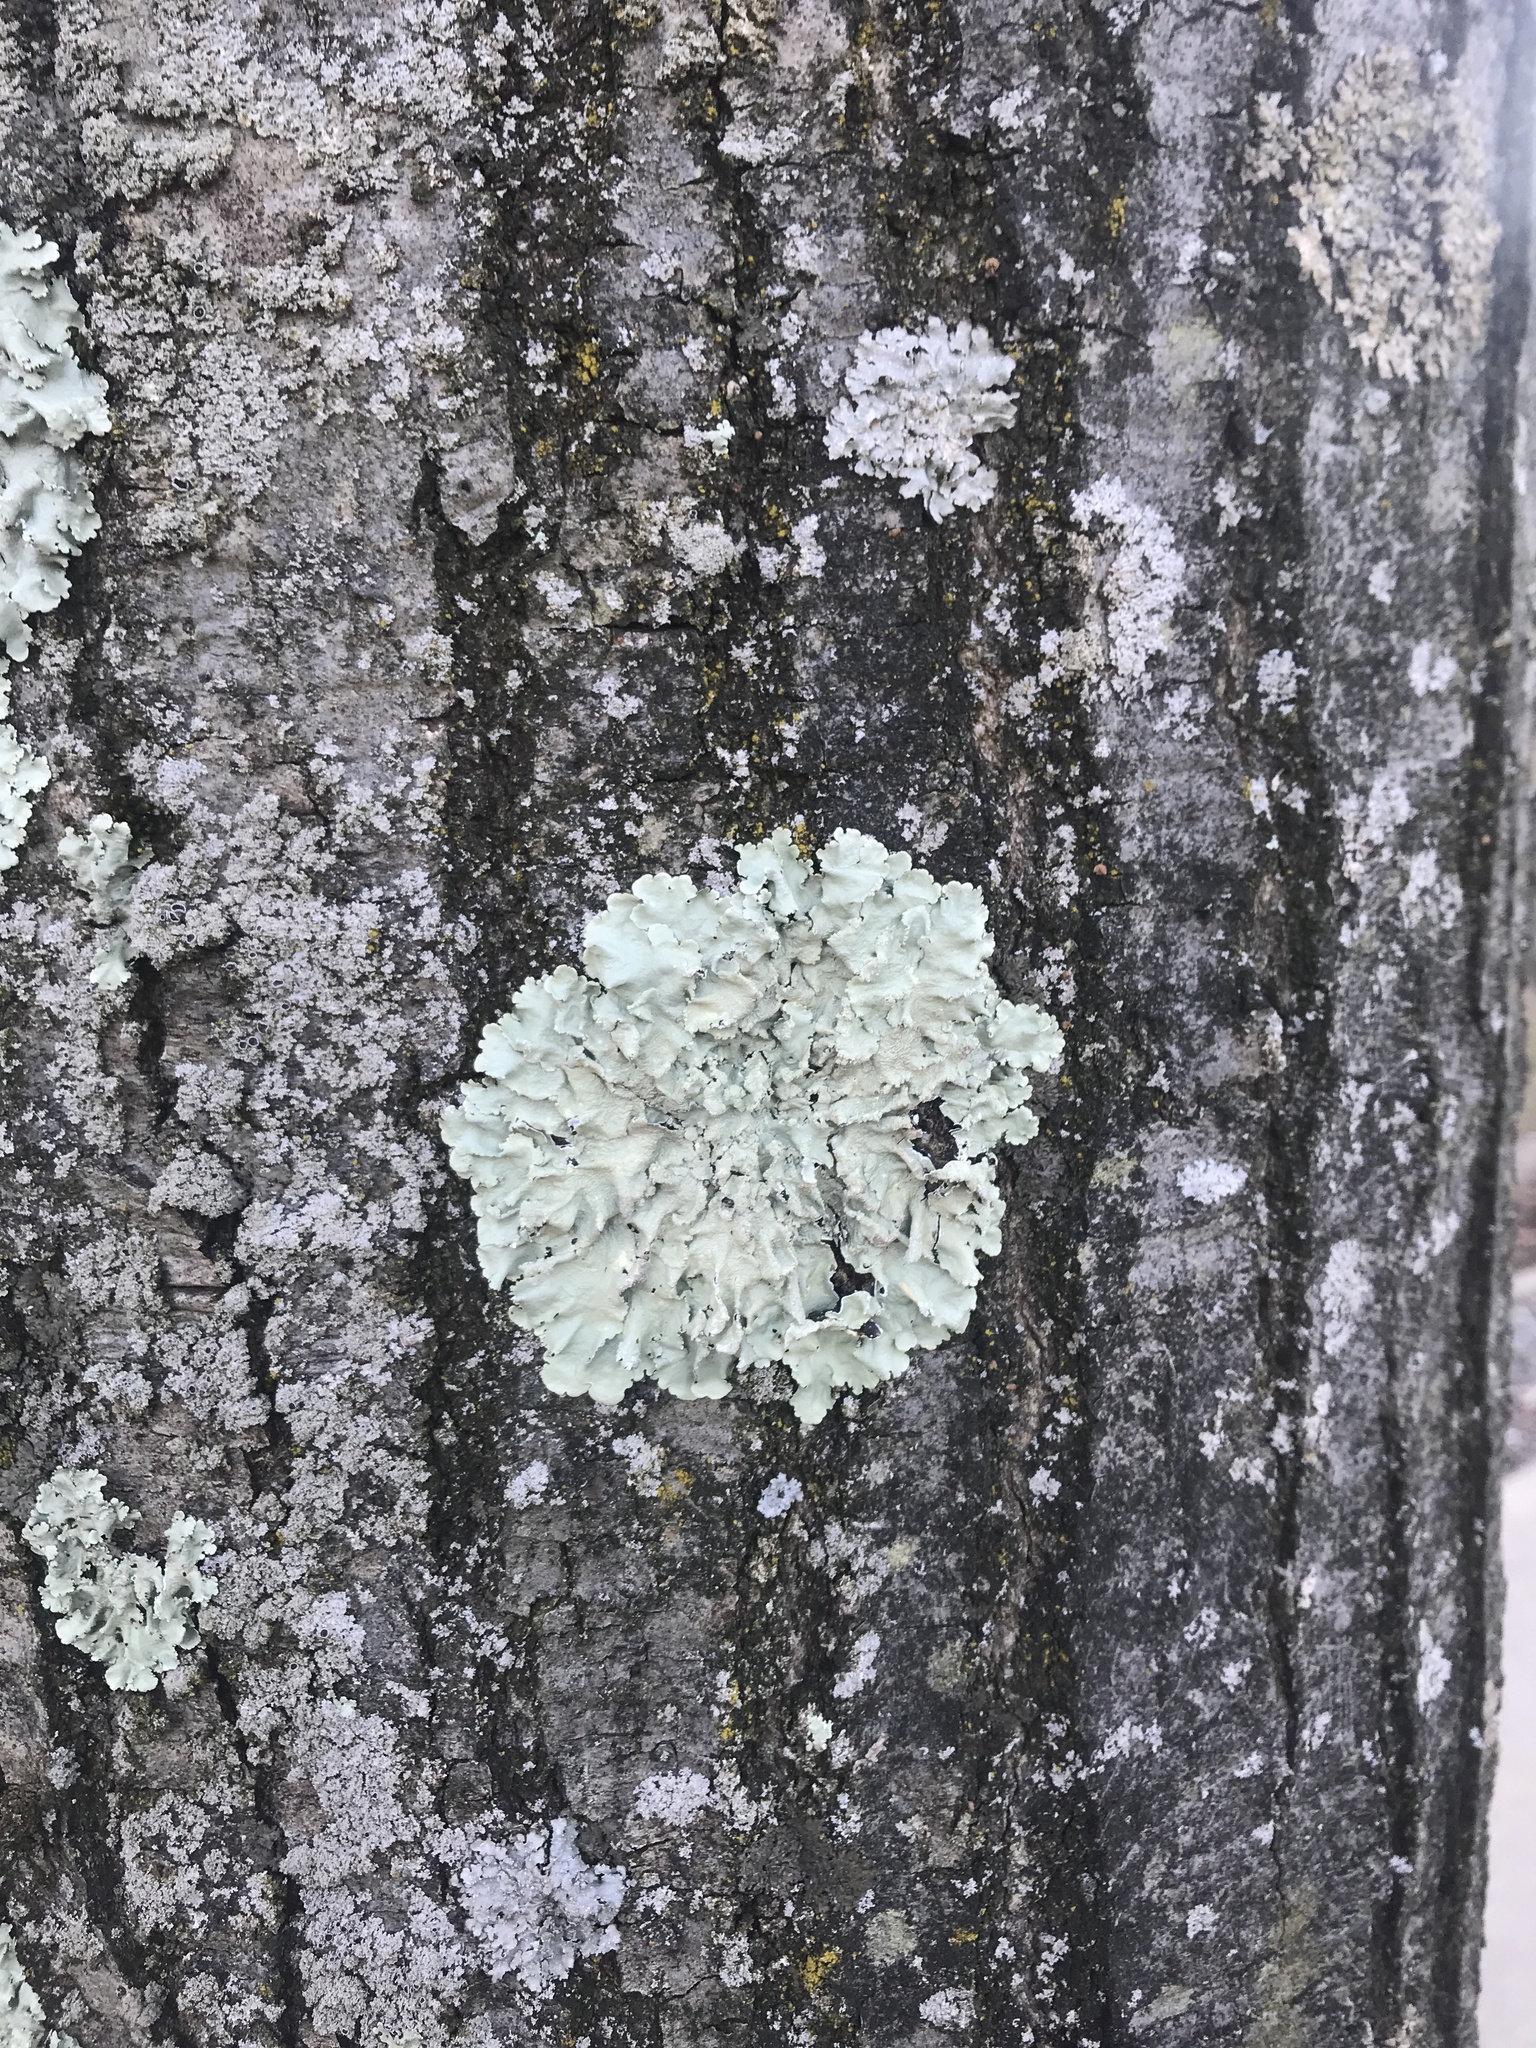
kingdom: Fungi
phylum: Ascomycota
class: Lecanoromycetes
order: Lecanorales
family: Parmeliaceae
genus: Flavoparmelia
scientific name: Flavoparmelia caperata
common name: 40-mile per hour lichen
